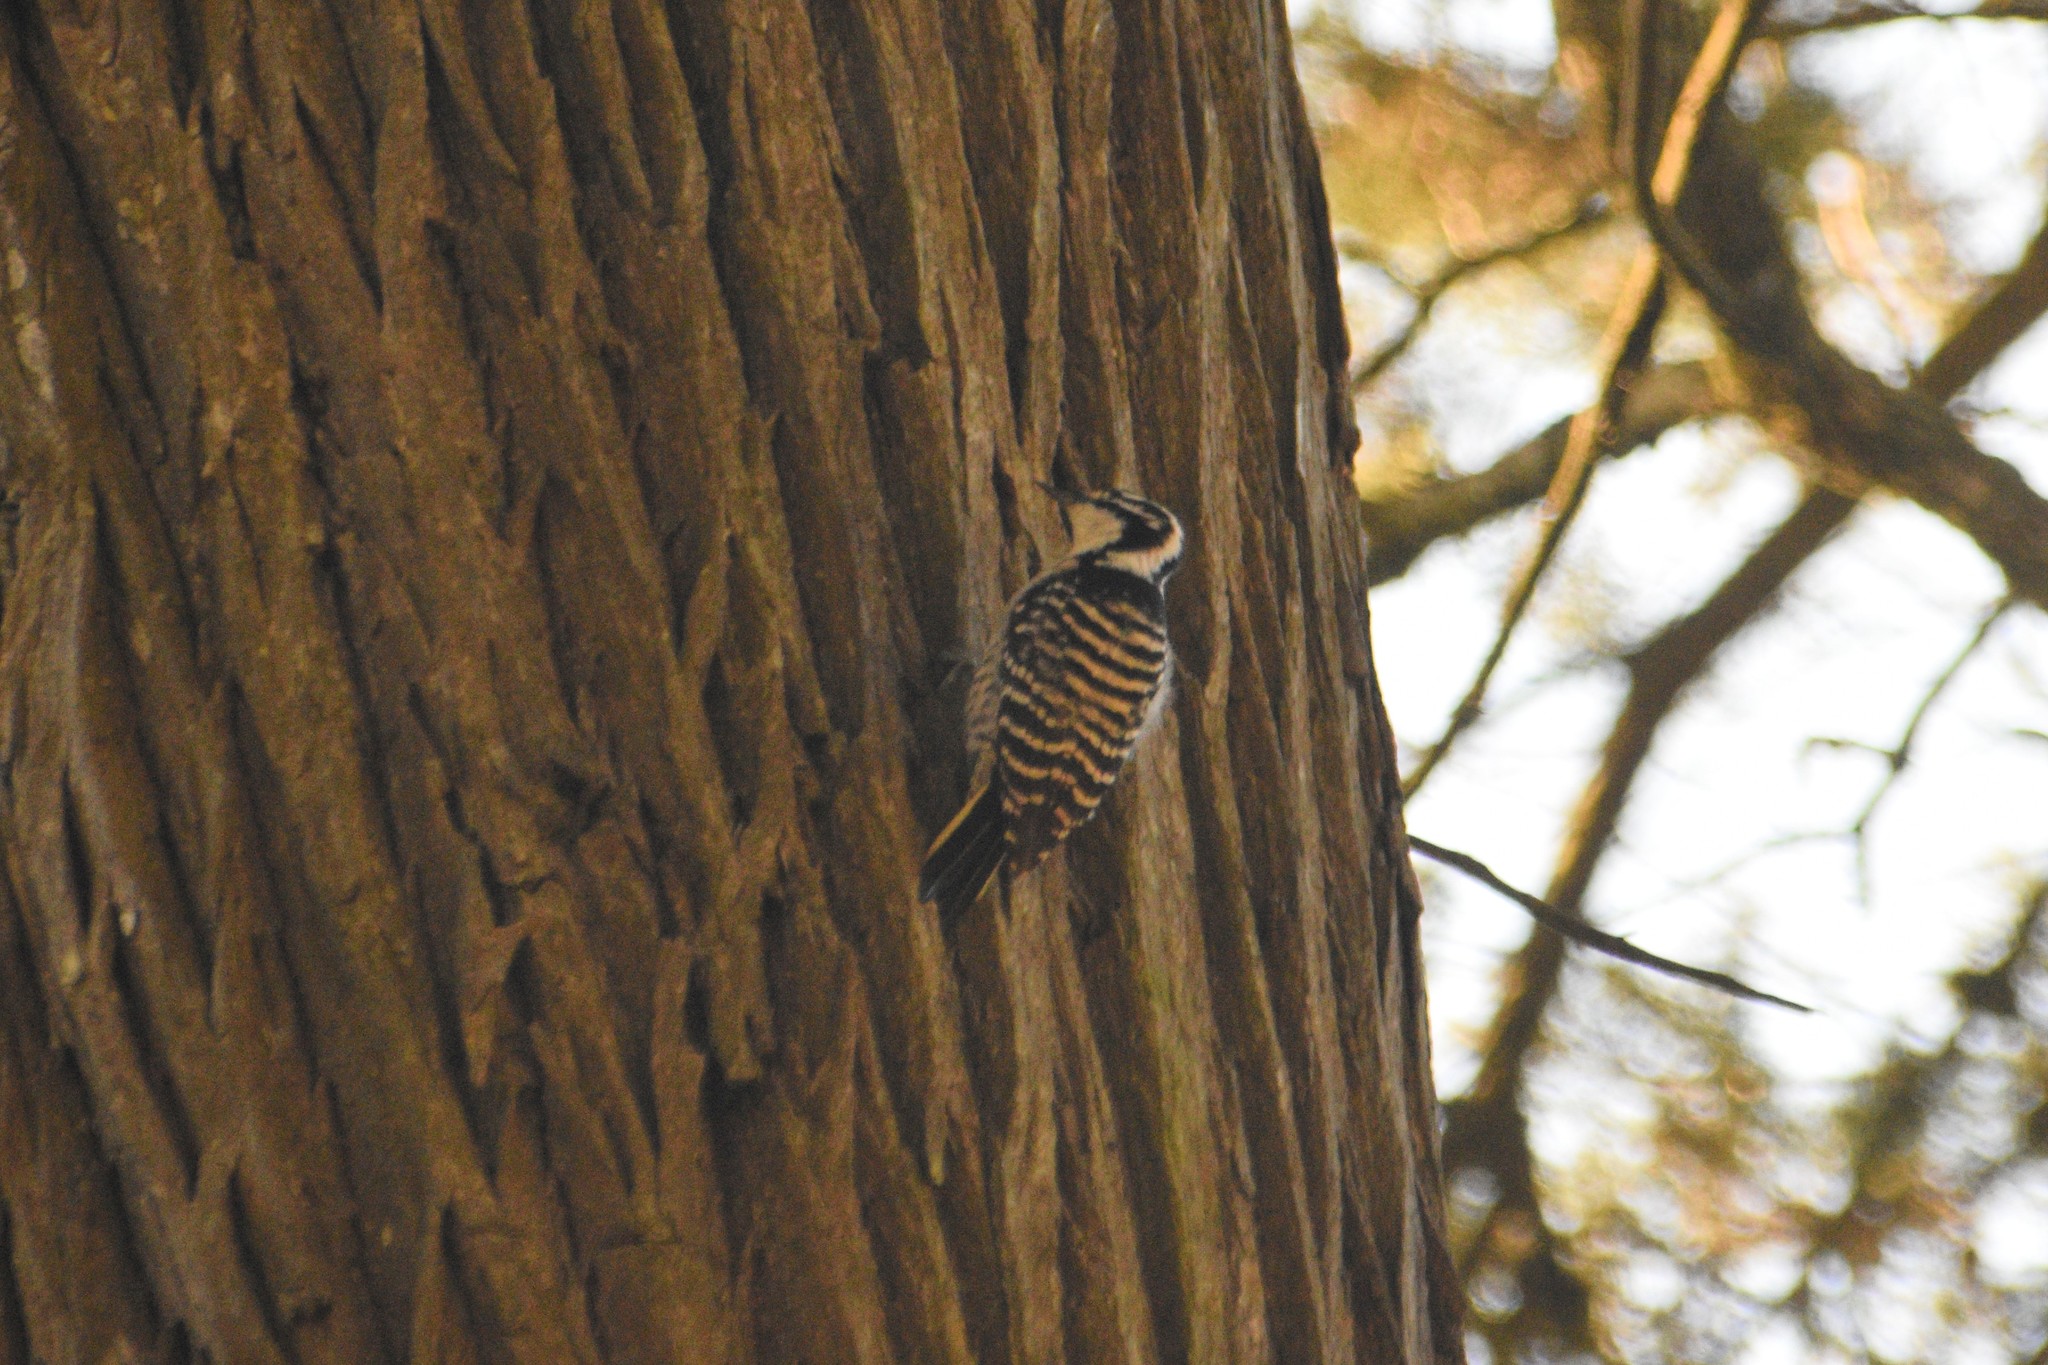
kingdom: Animalia
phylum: Chordata
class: Aves
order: Piciformes
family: Picidae
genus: Dryobates
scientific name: Dryobates nuttallii
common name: Nuttall's woodpecker
